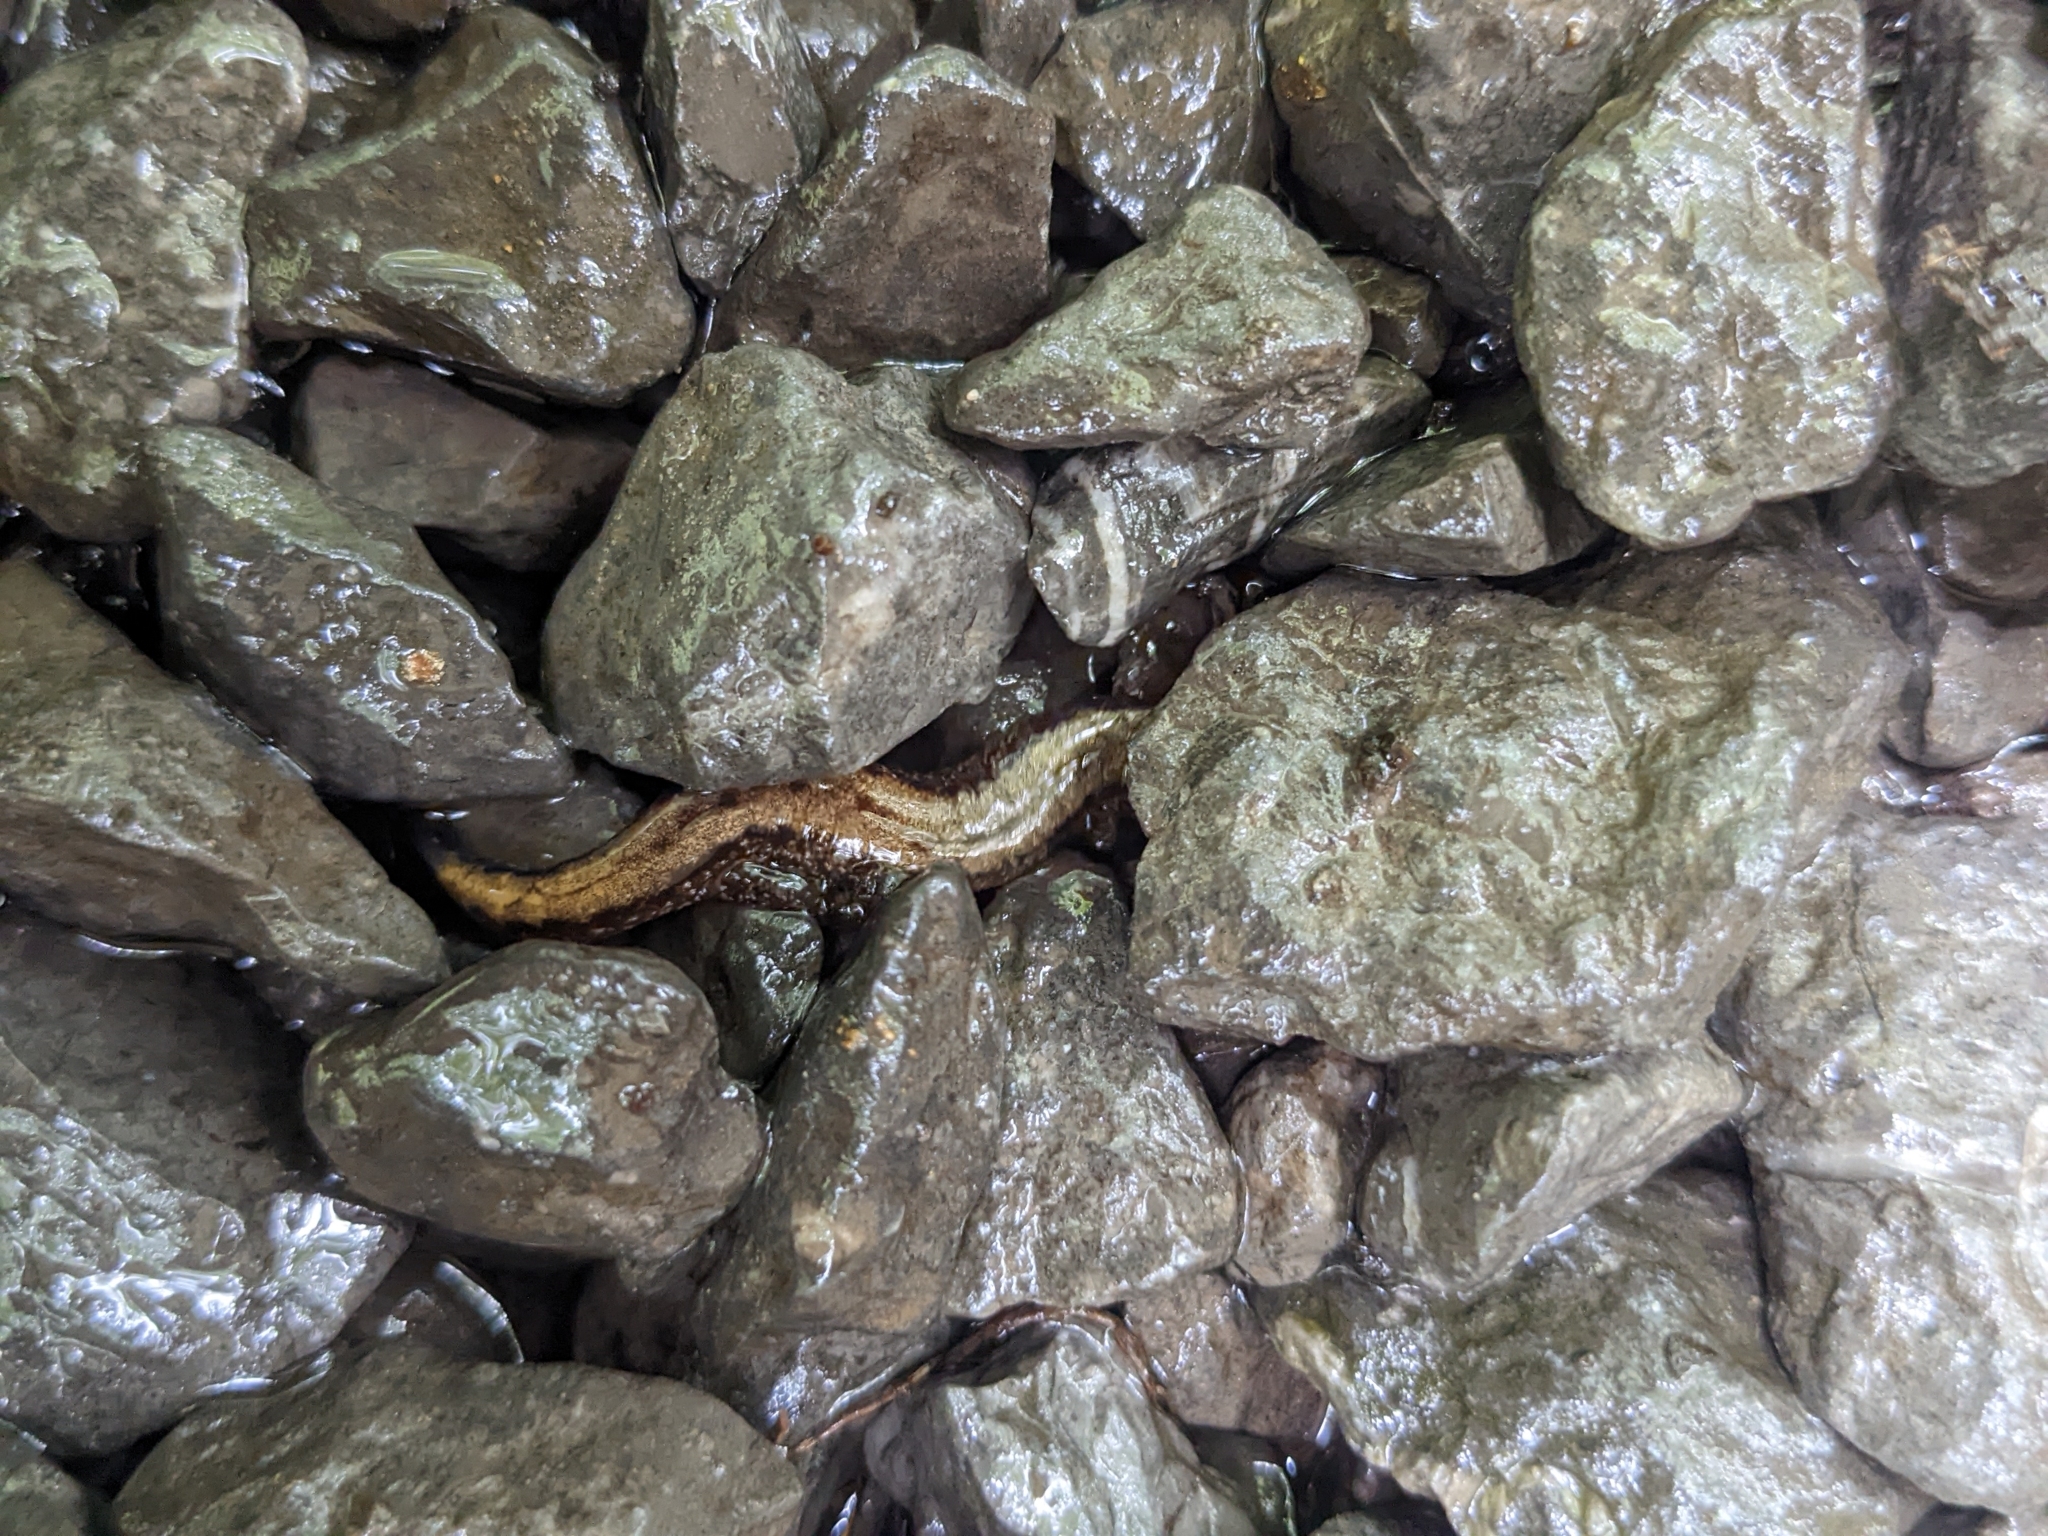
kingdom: Animalia
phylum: Chordata
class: Amphibia
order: Caudata
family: Plethodontidae
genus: Desmognathus
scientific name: Desmognathus ochrophaeus
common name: Allegheny mountain dusky salamander
